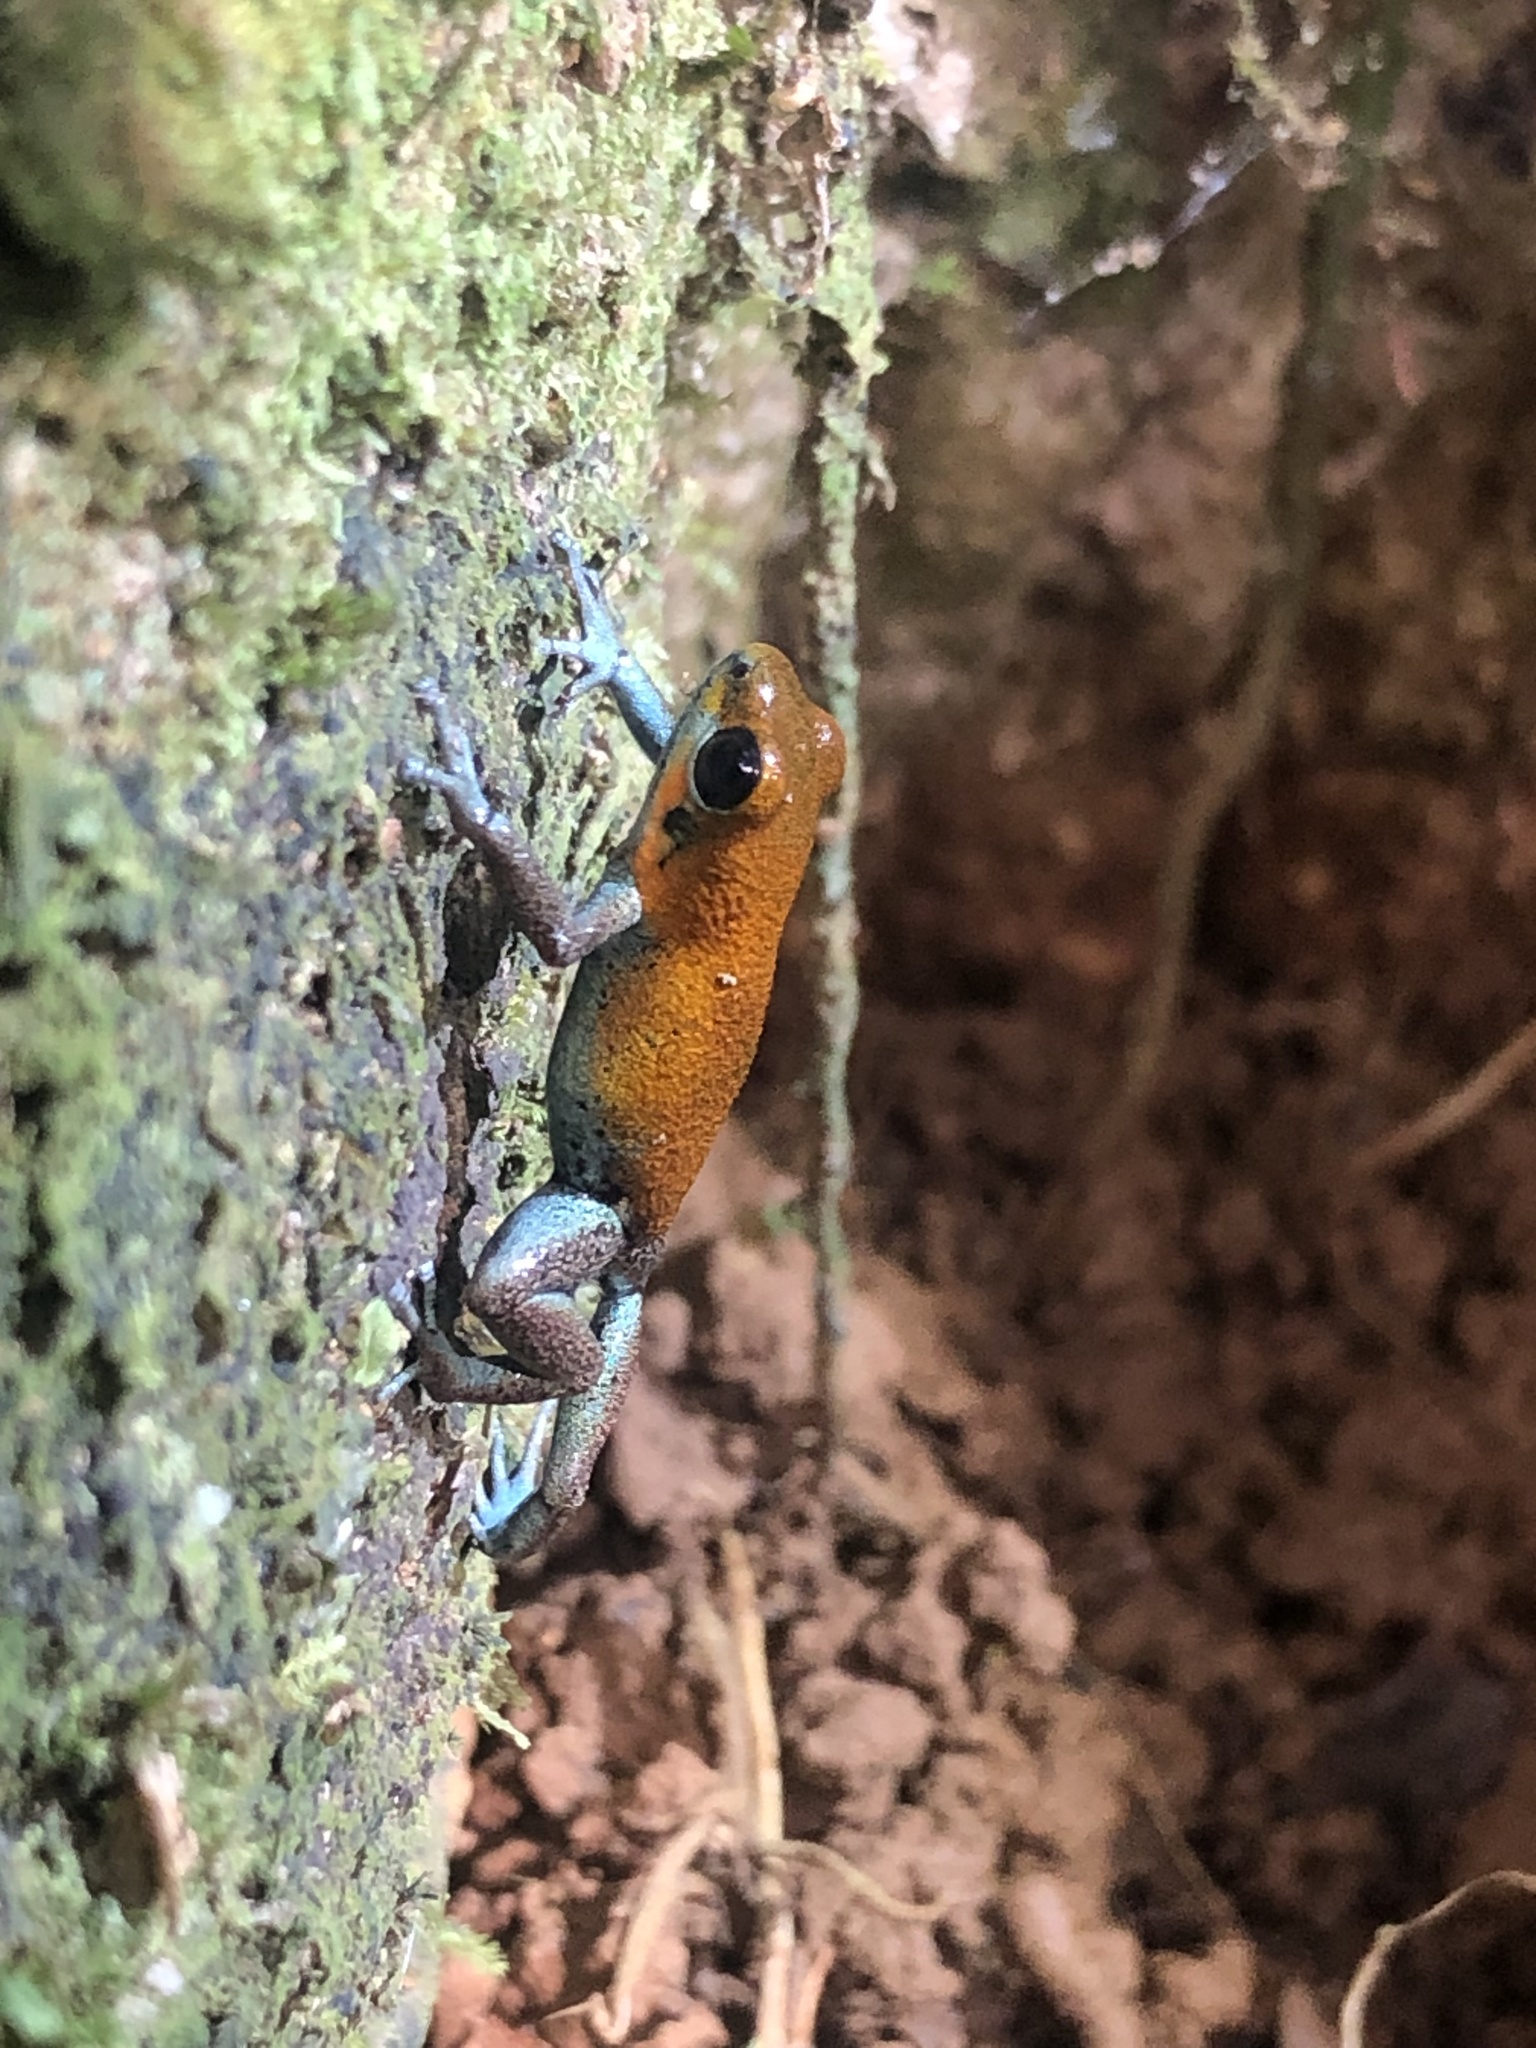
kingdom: Animalia
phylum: Chordata
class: Amphibia
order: Anura
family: Dendrobatidae
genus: Oophaga
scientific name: Oophaga pumilio
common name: Flaming poison frog
